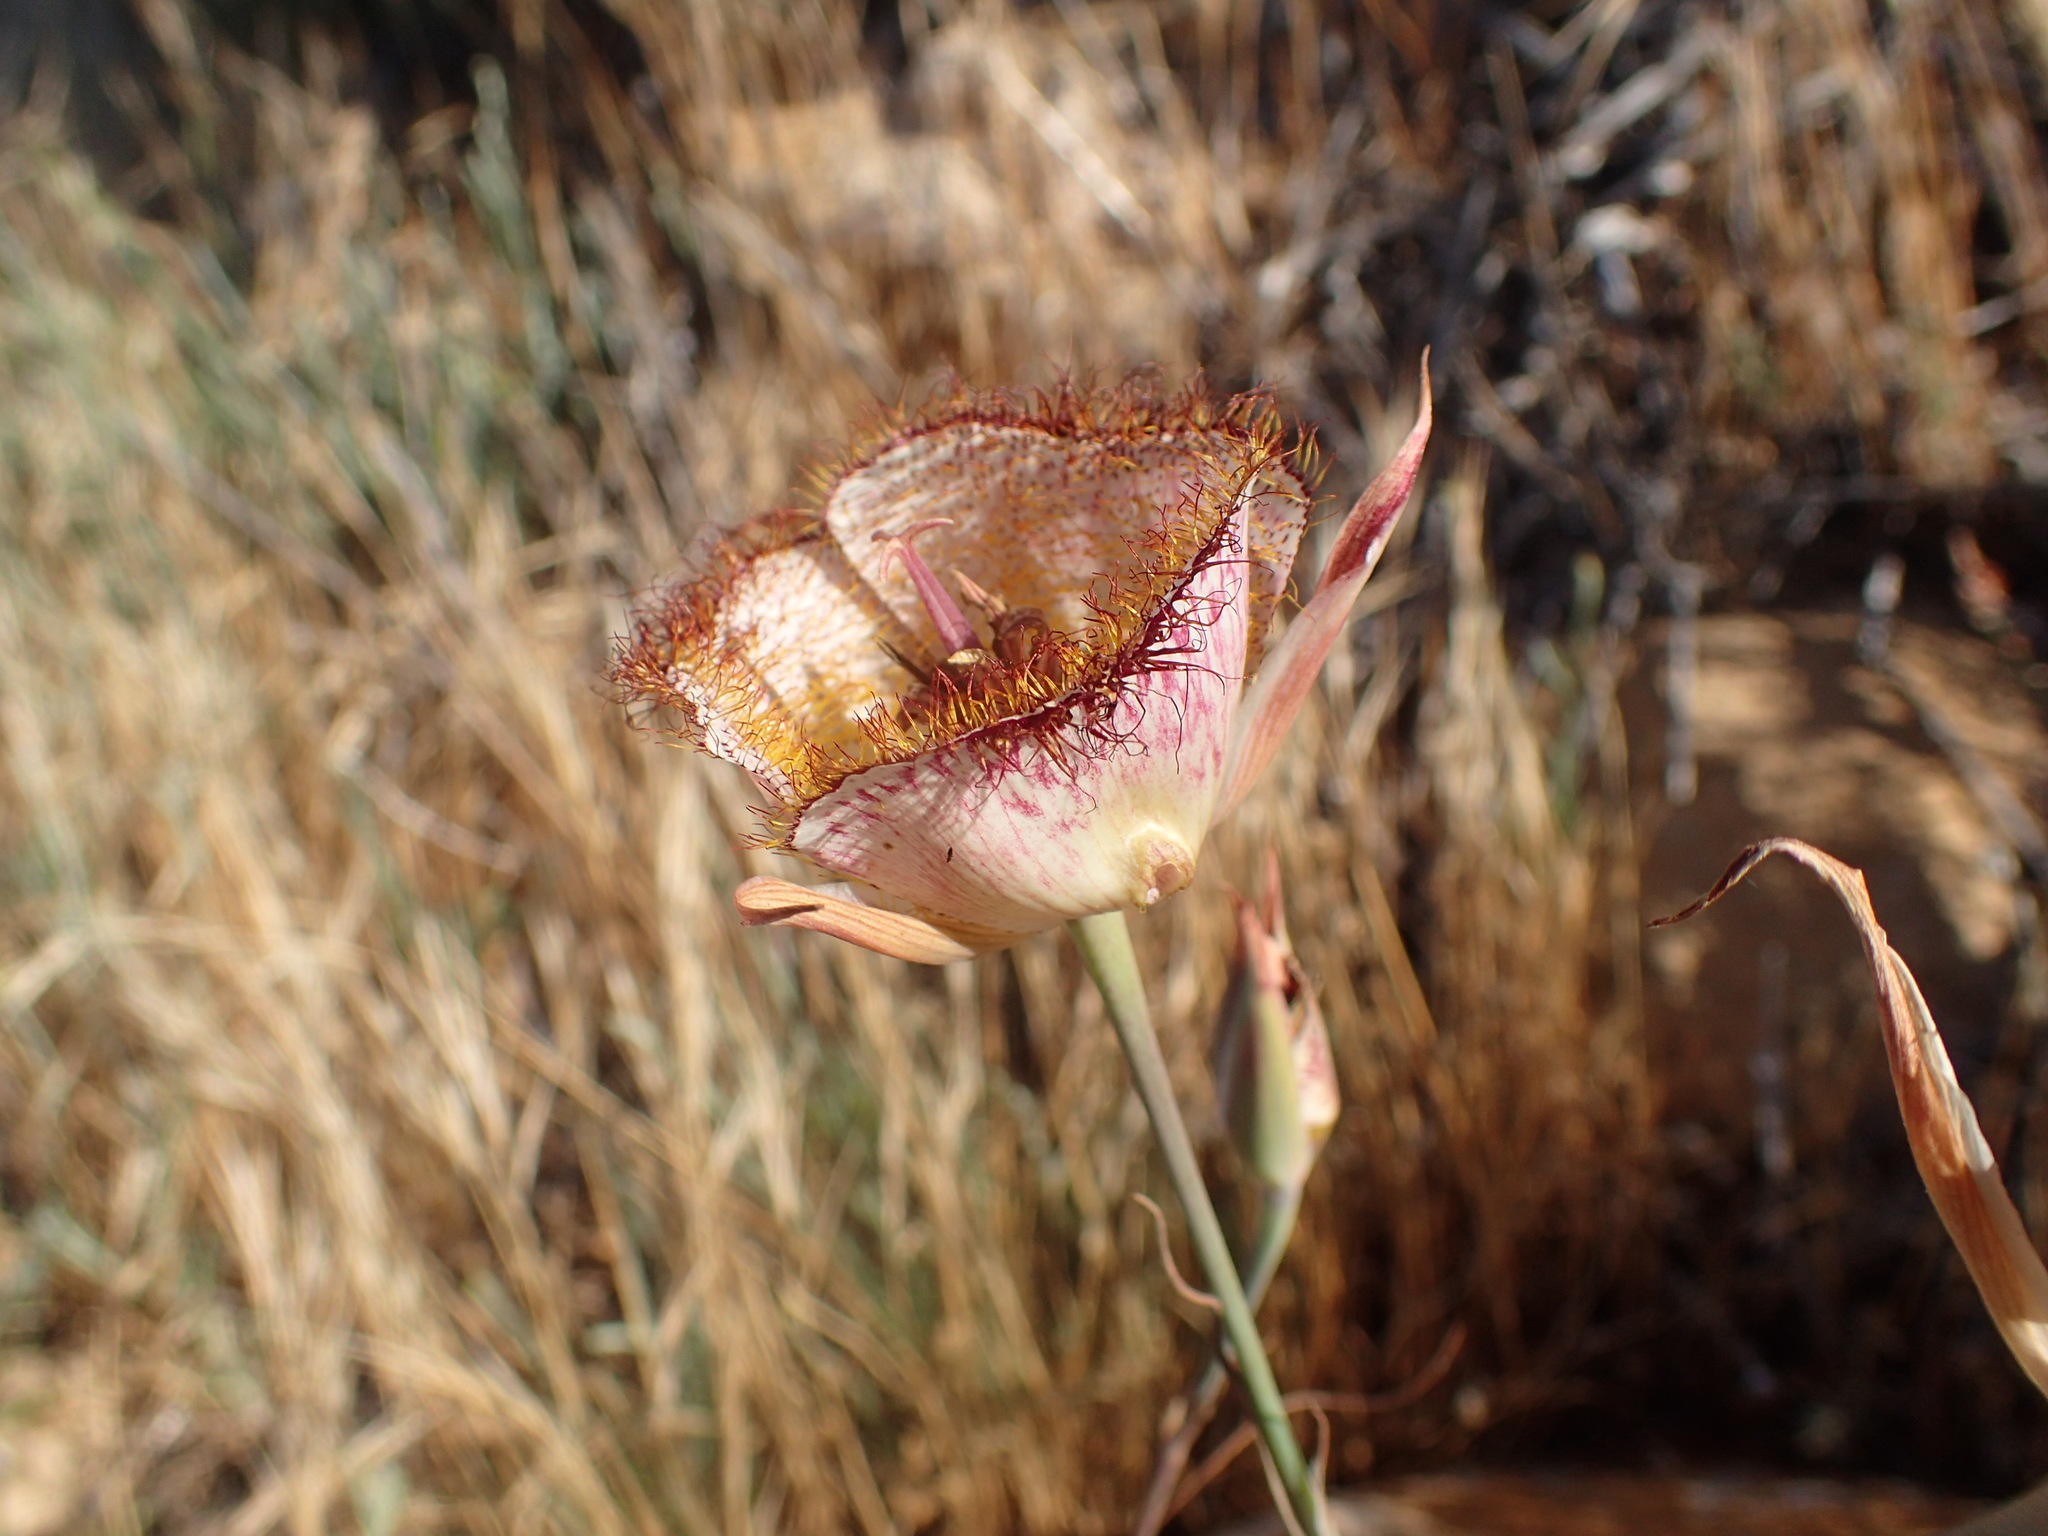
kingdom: Plantae
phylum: Tracheophyta
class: Liliopsida
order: Liliales
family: Liliaceae
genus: Calochortus
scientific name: Calochortus fimbriatus
